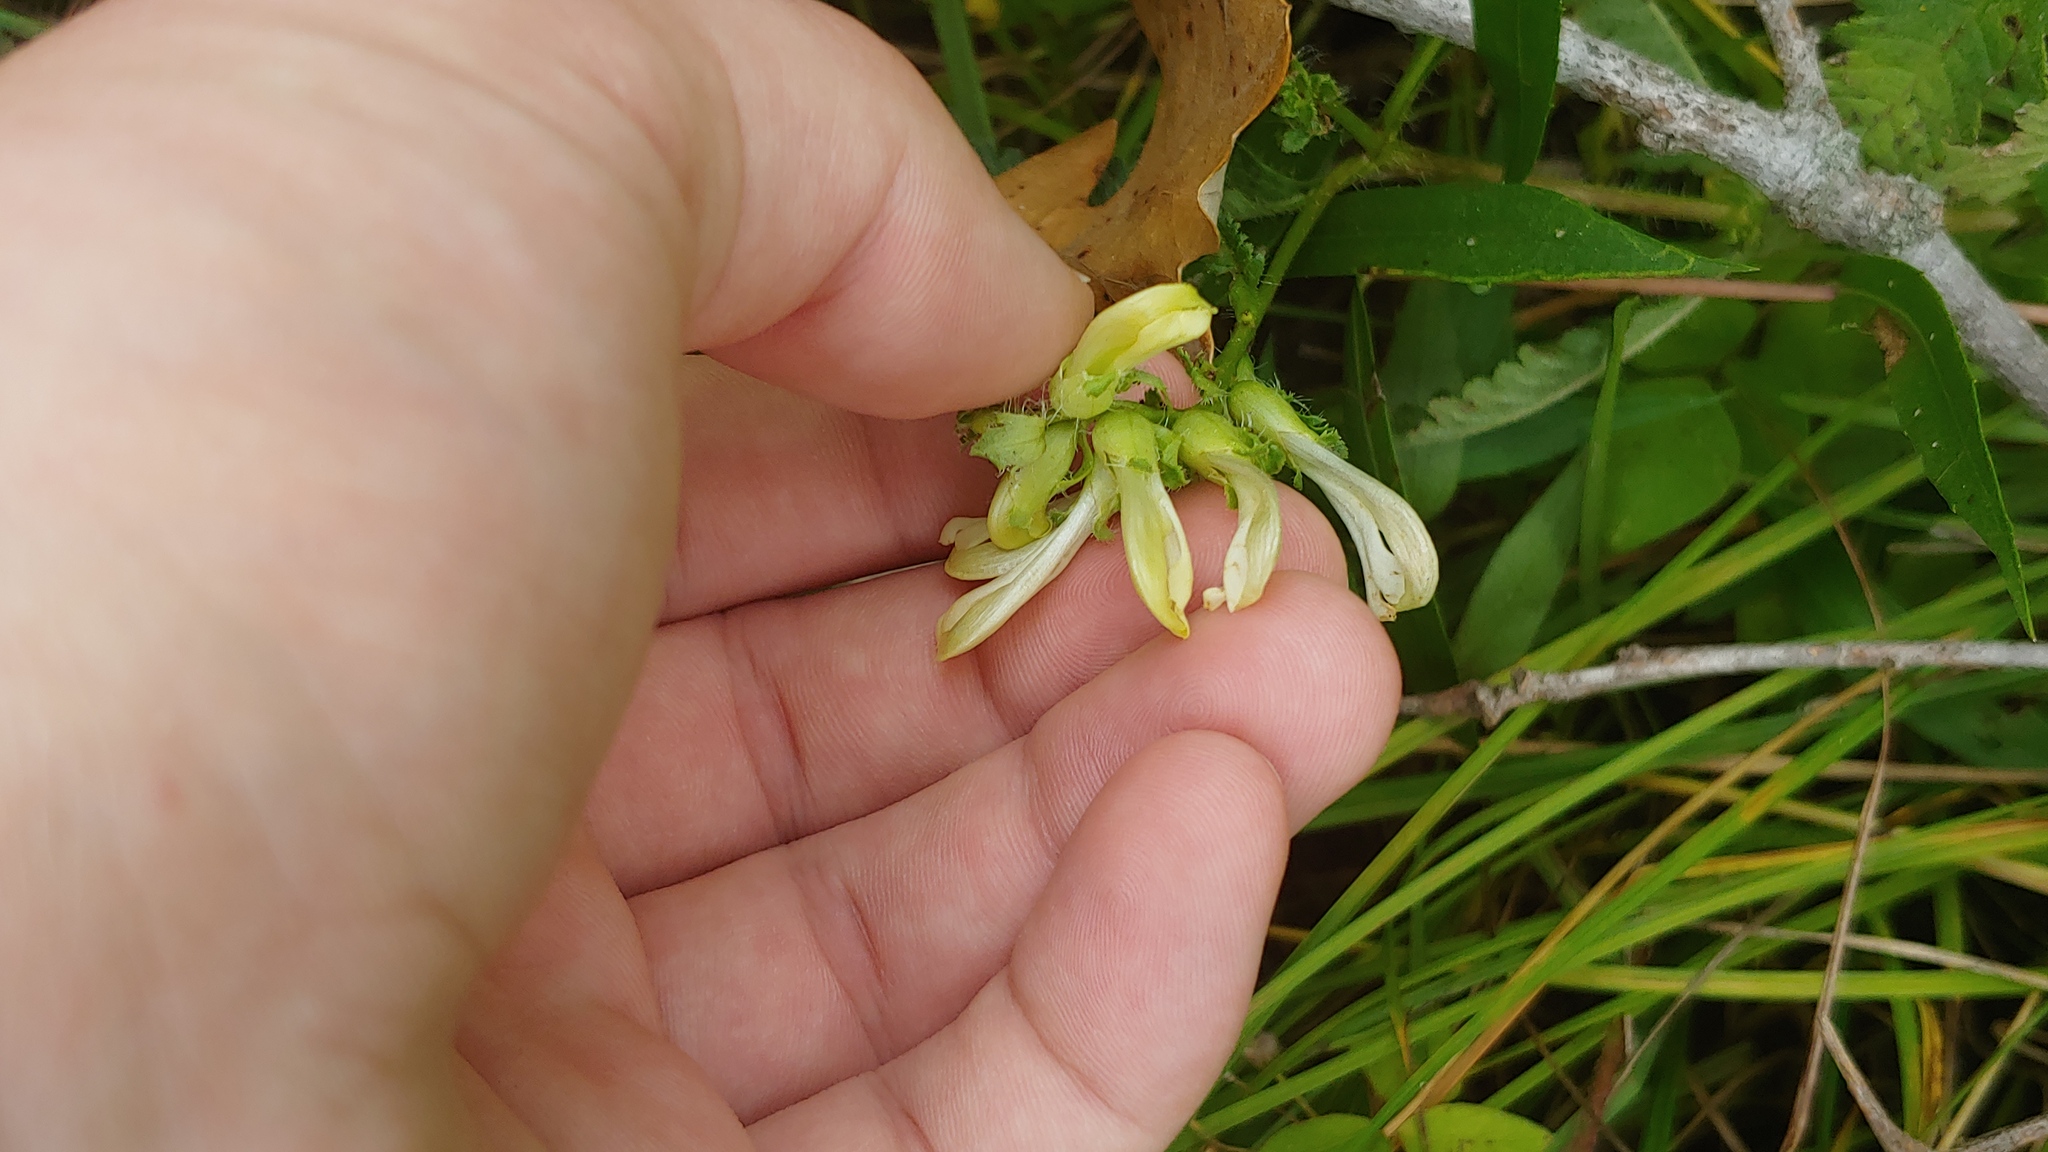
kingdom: Plantae
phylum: Tracheophyta
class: Magnoliopsida
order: Lamiales
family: Orobanchaceae
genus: Pedicularis
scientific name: Pedicularis lanceolata
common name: Swamp lousewort
